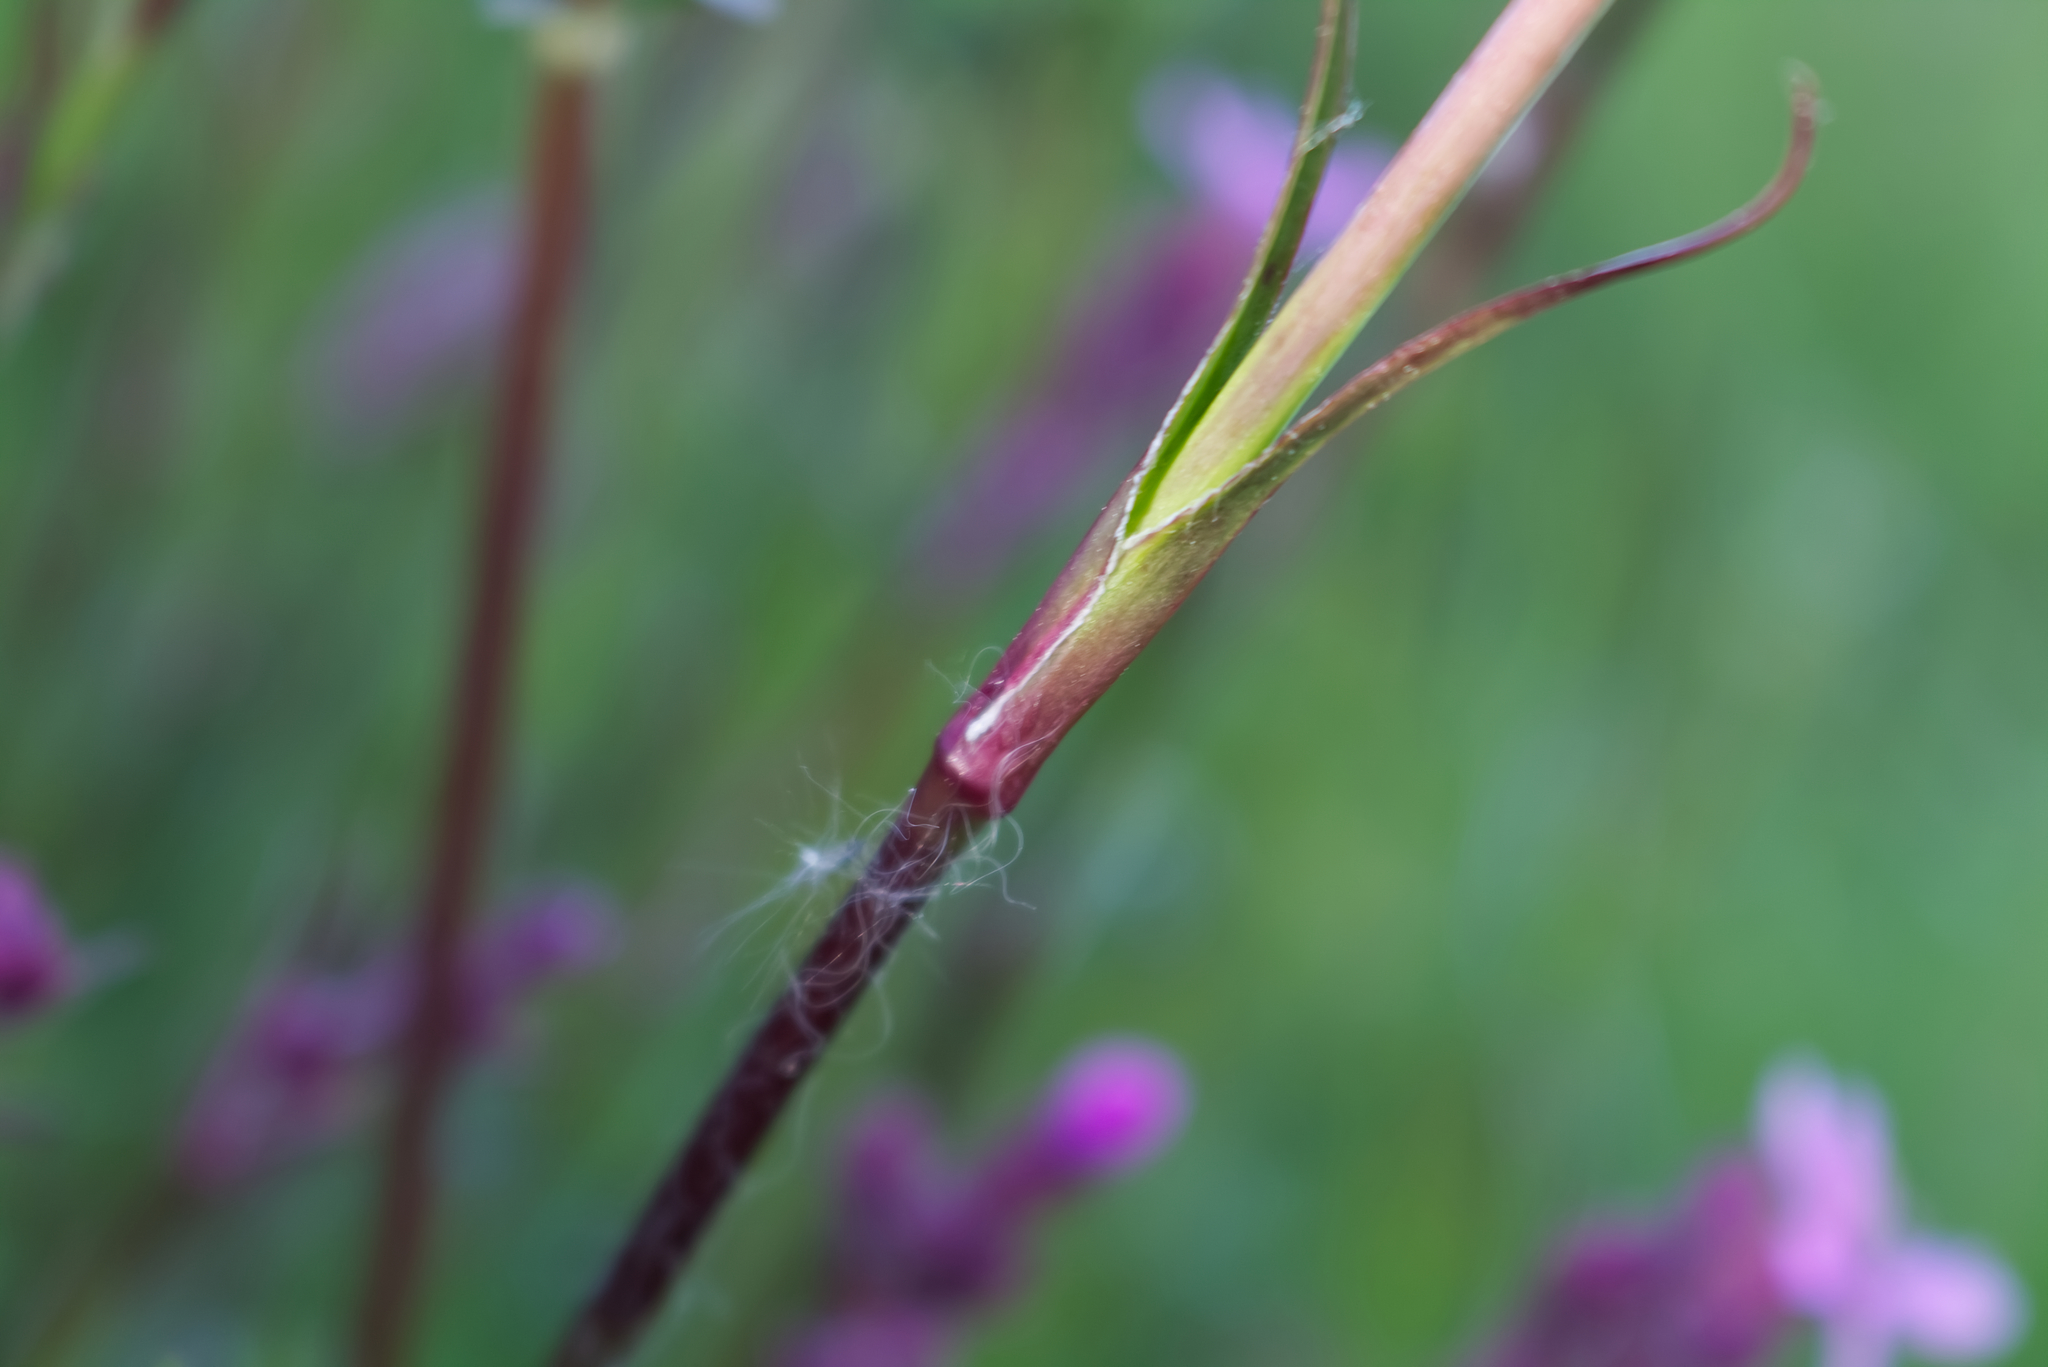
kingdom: Plantae
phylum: Tracheophyta
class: Magnoliopsida
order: Caryophyllales
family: Caryophyllaceae
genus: Viscaria
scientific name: Viscaria vulgaris
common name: Clammy campion
